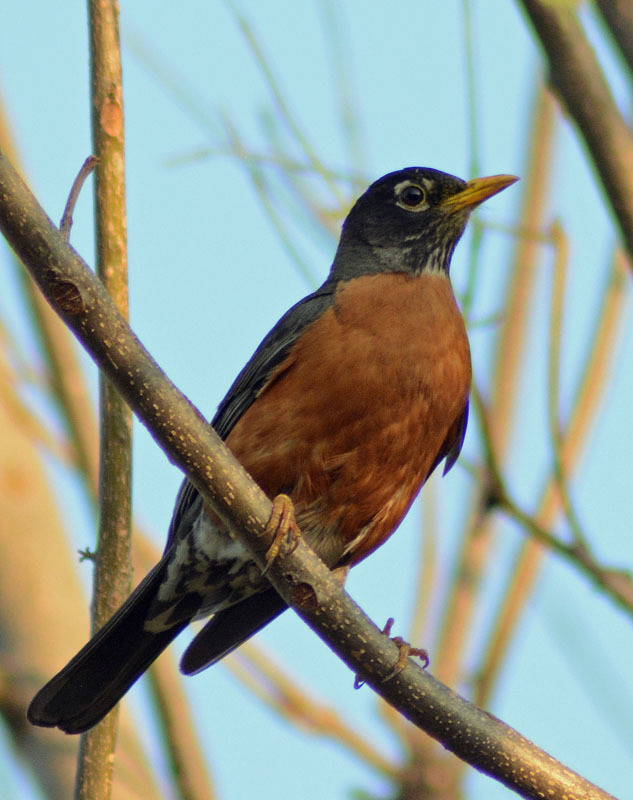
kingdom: Animalia
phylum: Chordata
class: Aves
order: Passeriformes
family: Turdidae
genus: Turdus
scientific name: Turdus migratorius
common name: American robin
